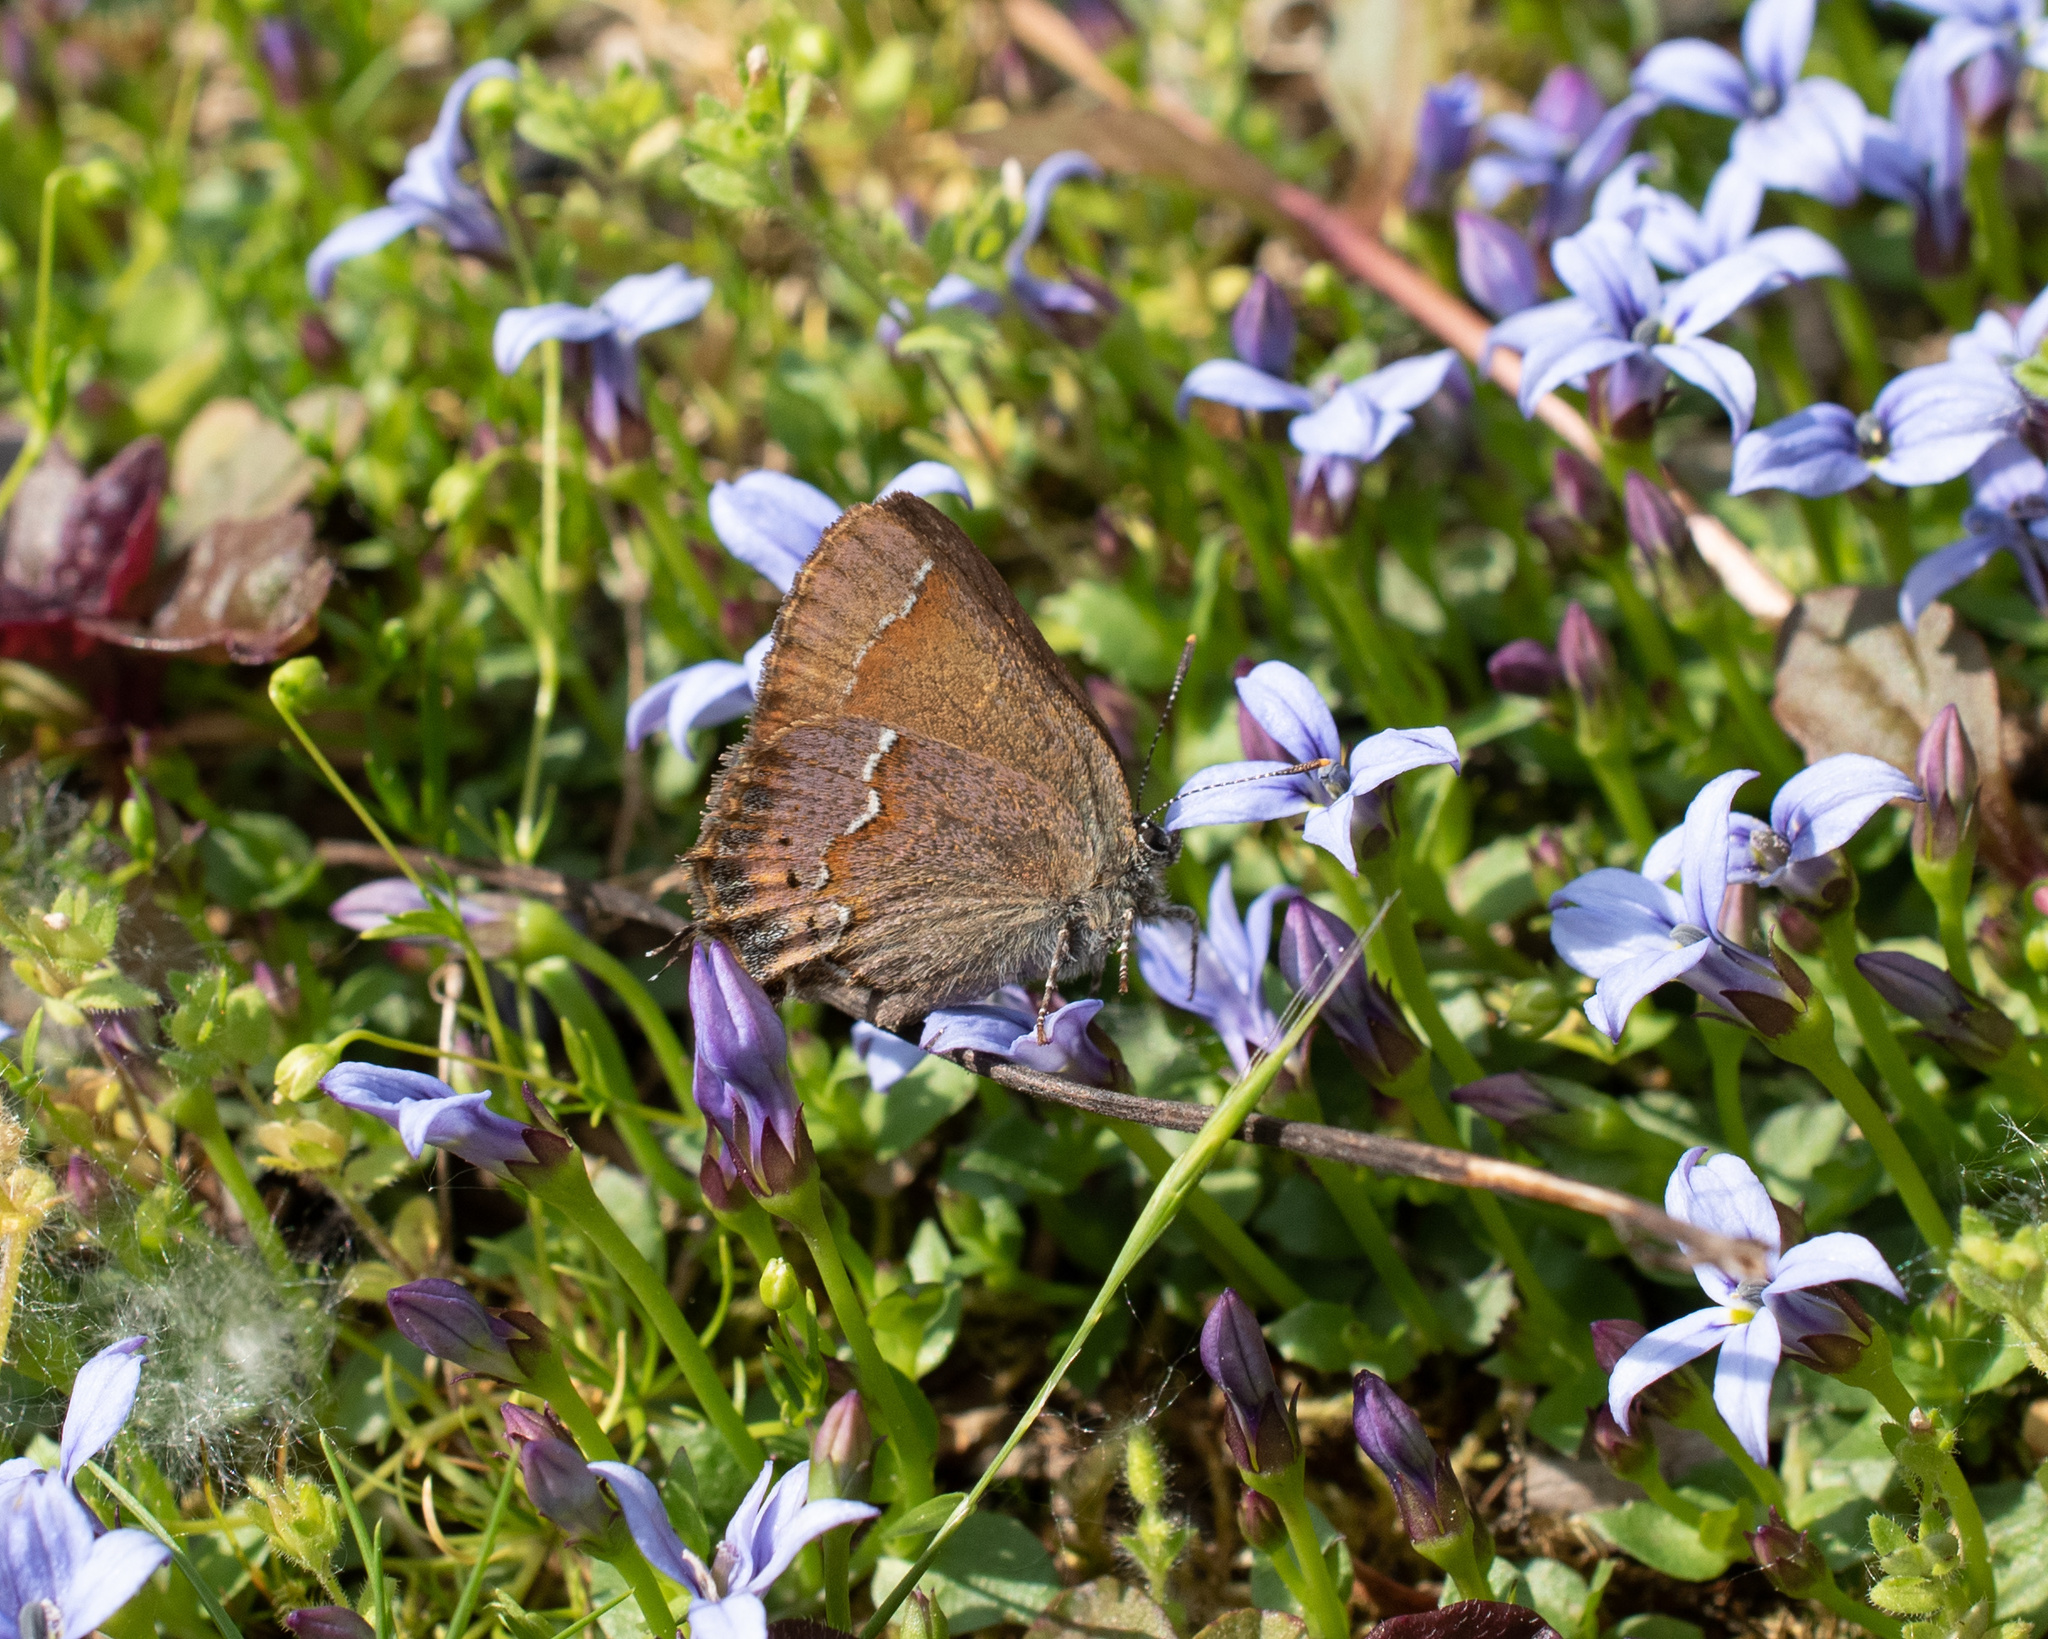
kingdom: Animalia
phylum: Arthropoda
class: Insecta
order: Lepidoptera
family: Lycaenidae
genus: Mitoura
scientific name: Mitoura gryneus
